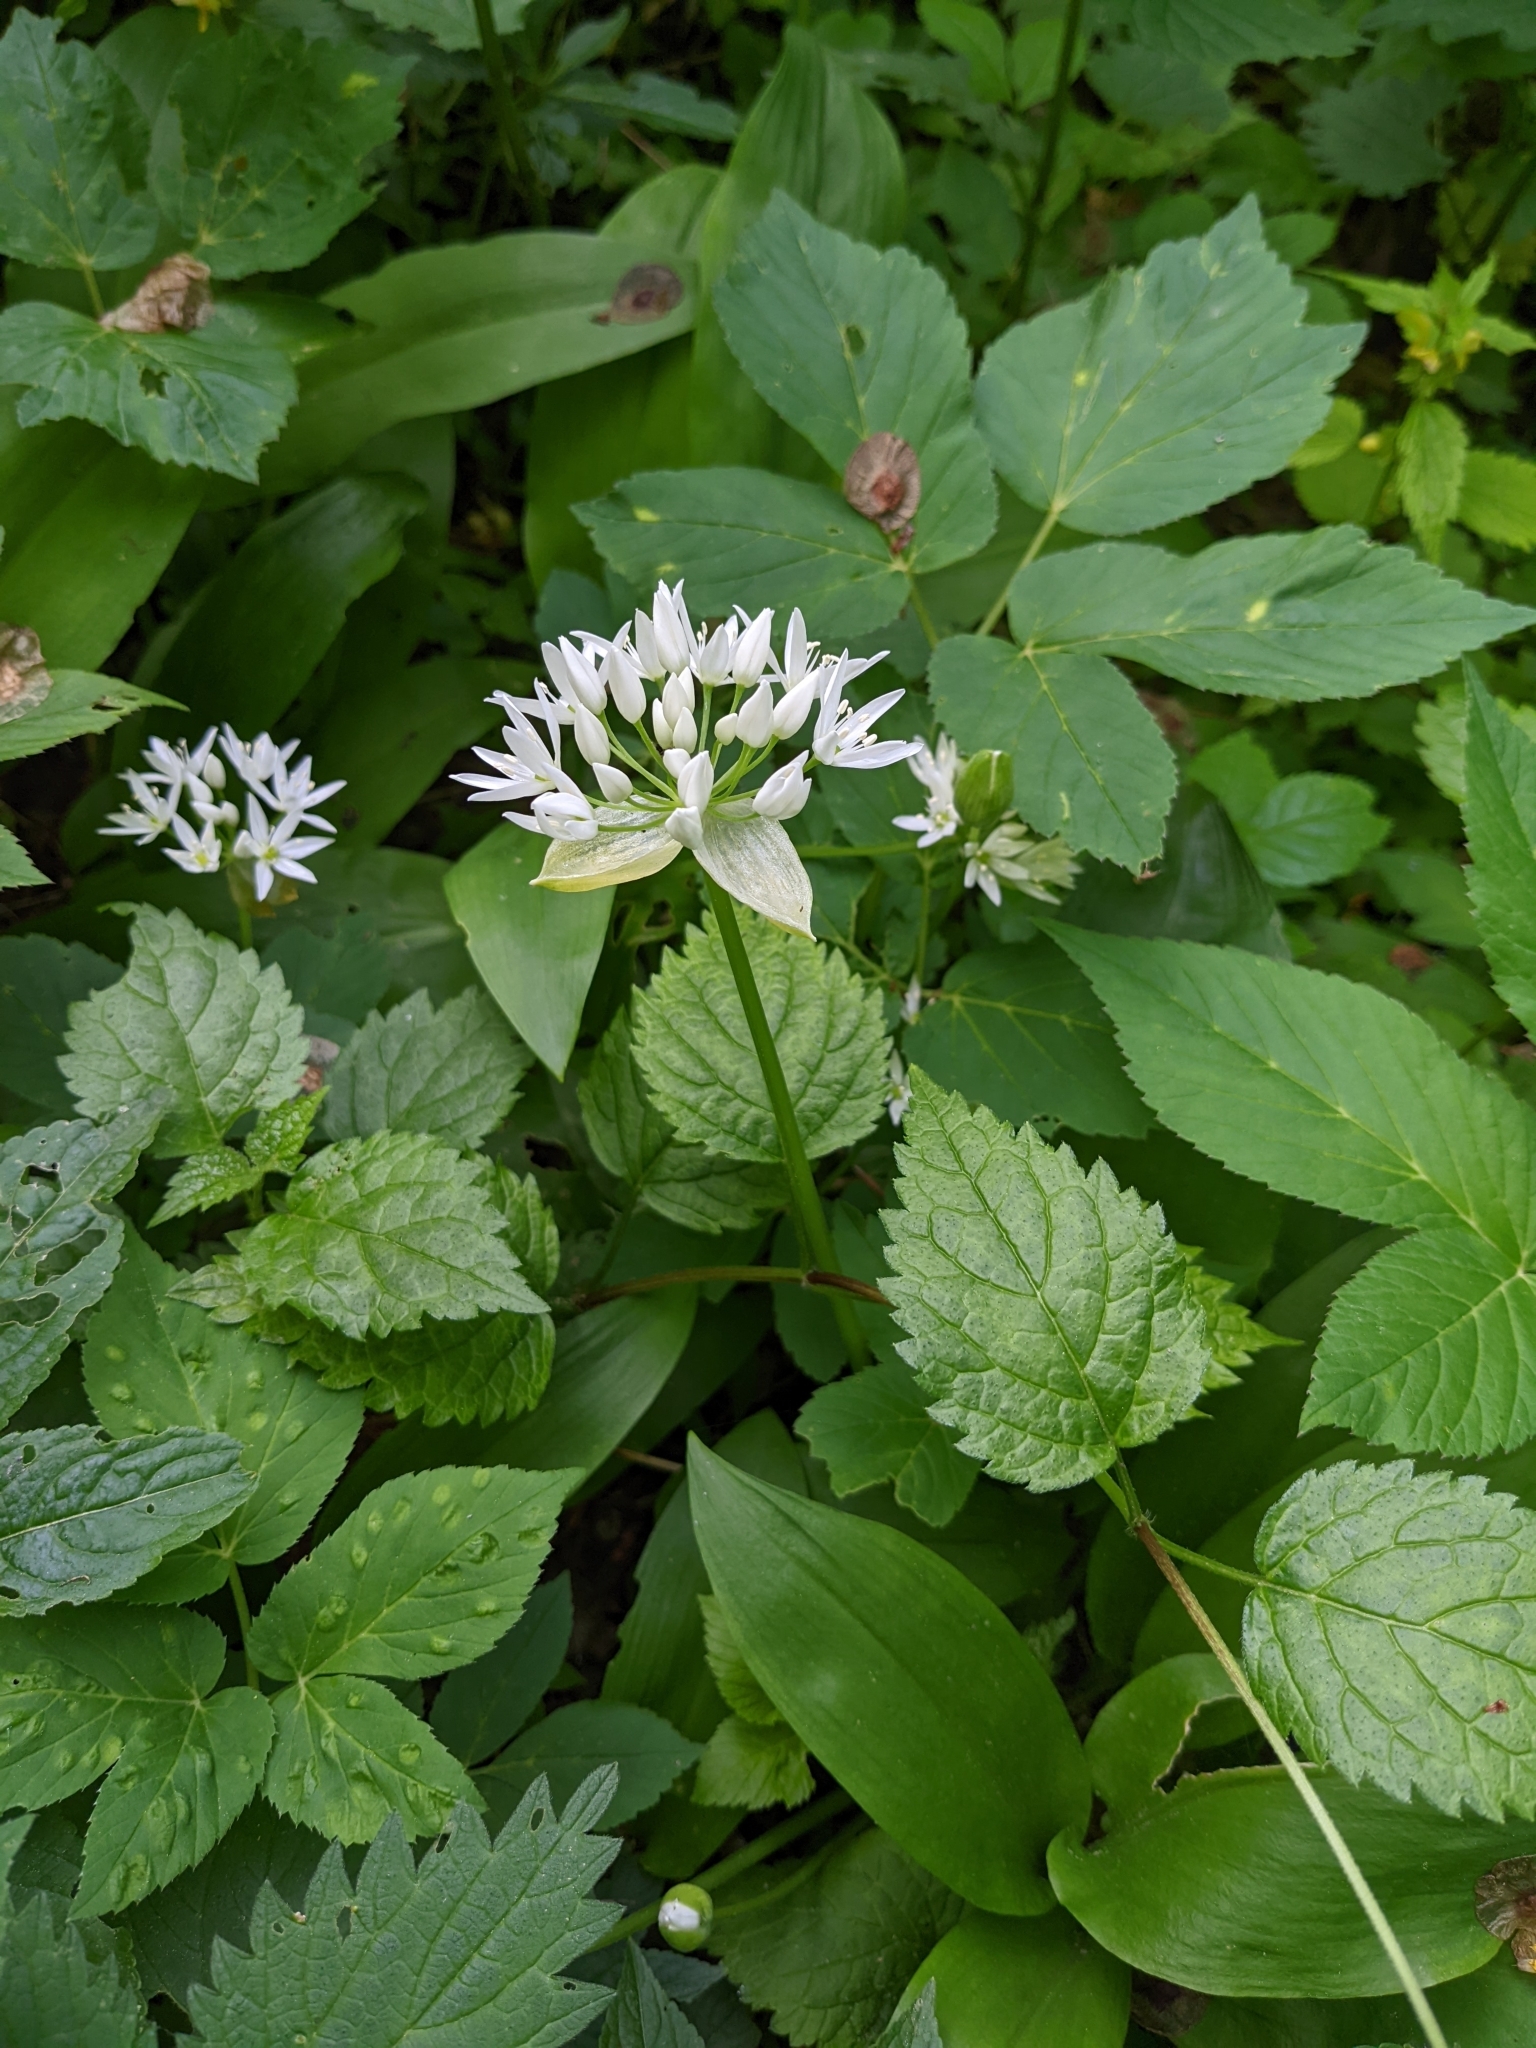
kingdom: Plantae
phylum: Tracheophyta
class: Liliopsida
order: Asparagales
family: Amaryllidaceae
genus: Allium
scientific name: Allium ursinum
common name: Ramsons
